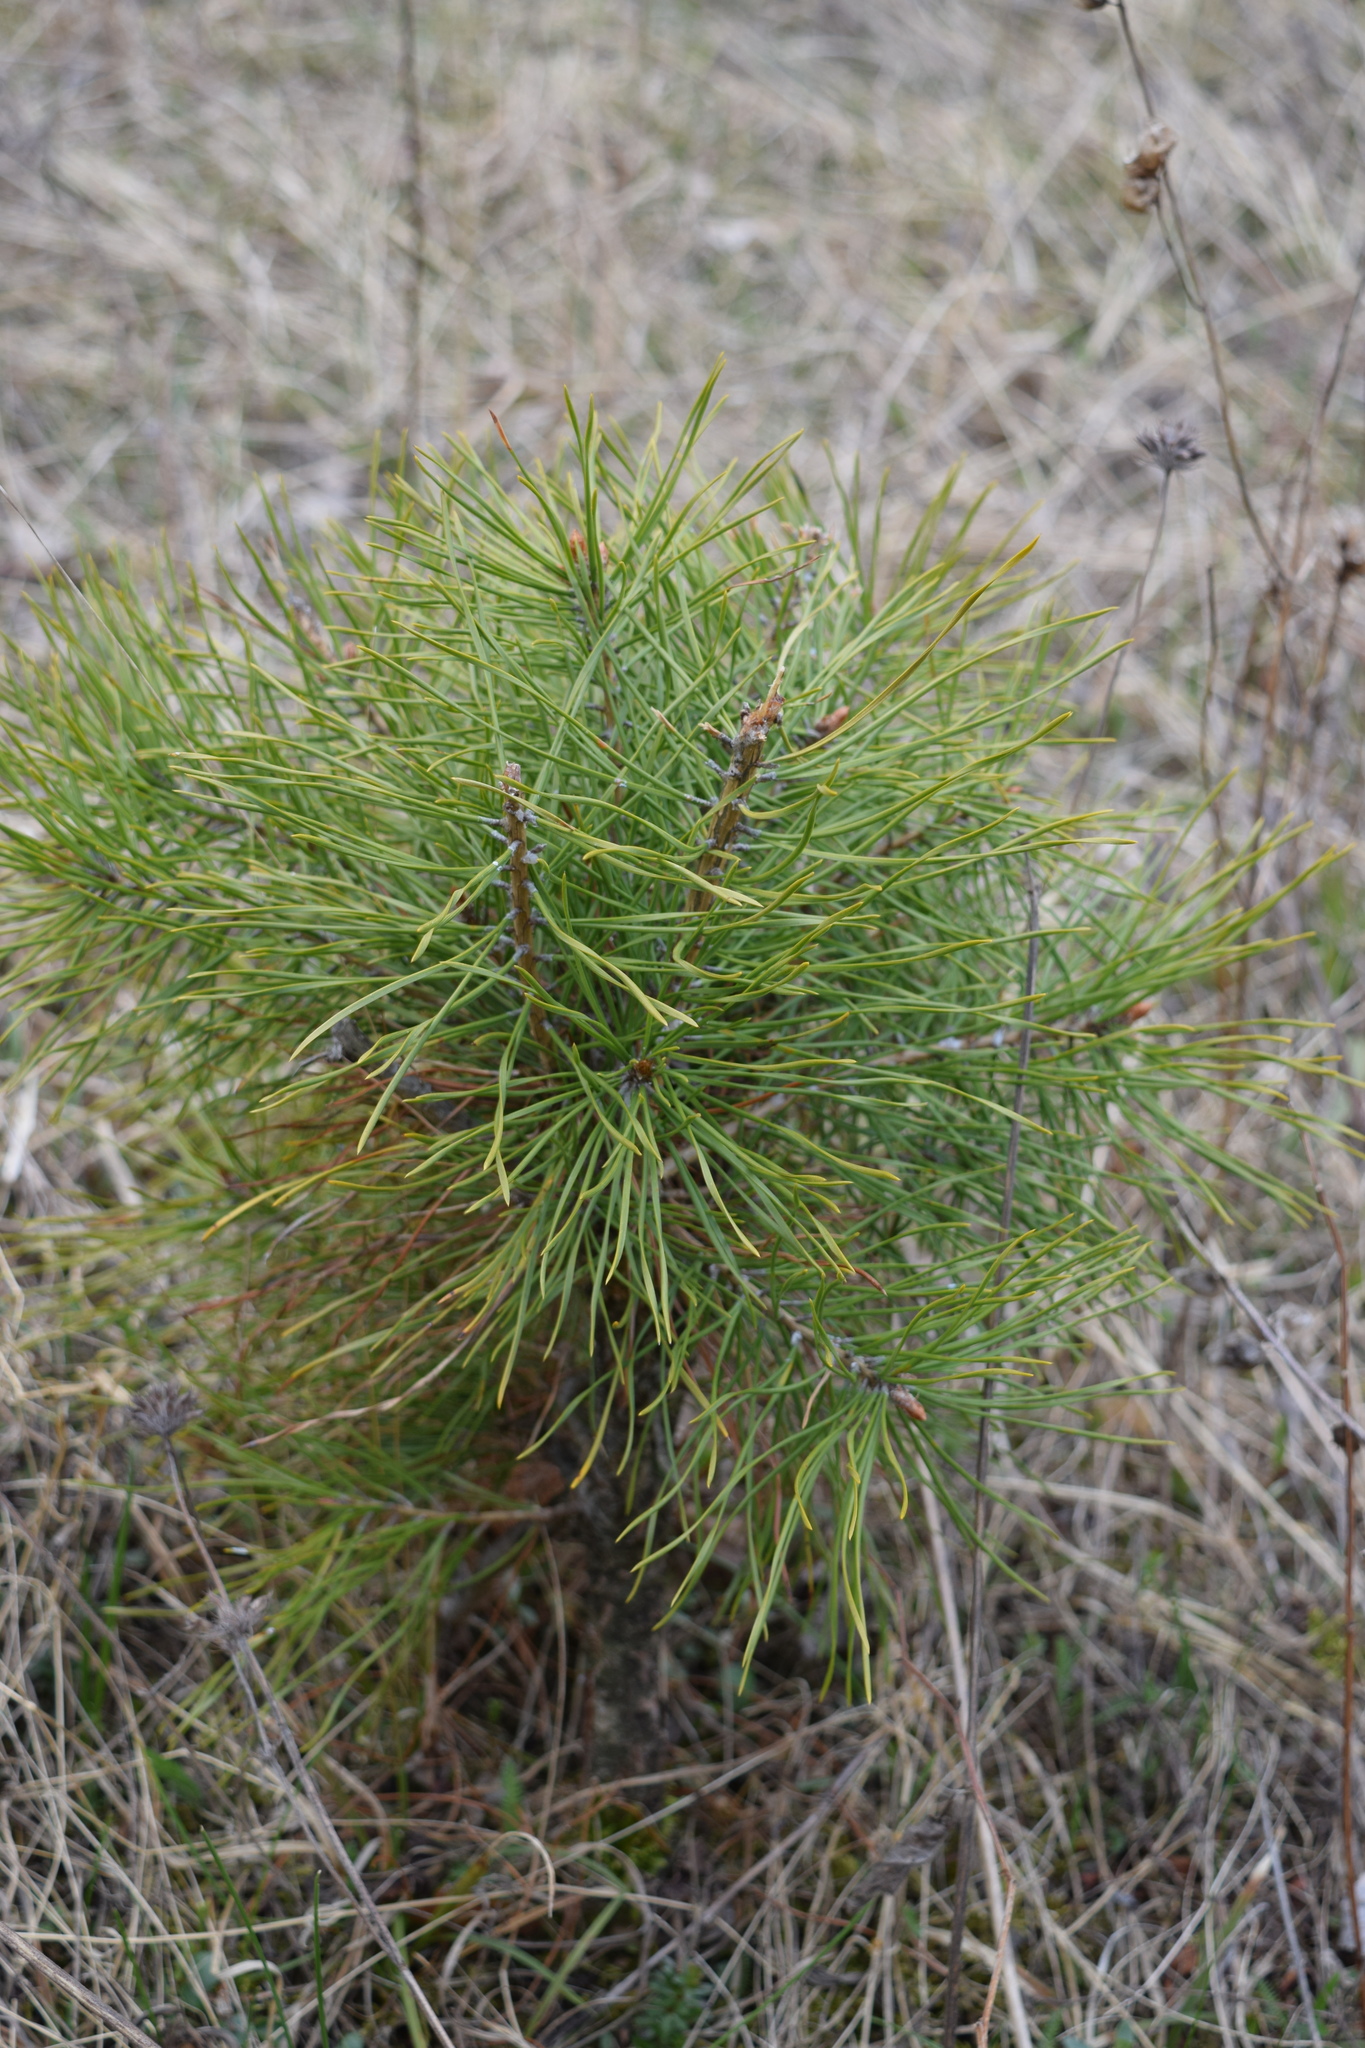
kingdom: Plantae
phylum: Tracheophyta
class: Pinopsida
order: Pinales
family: Pinaceae
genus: Pinus
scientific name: Pinus sylvestris
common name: Scots pine
